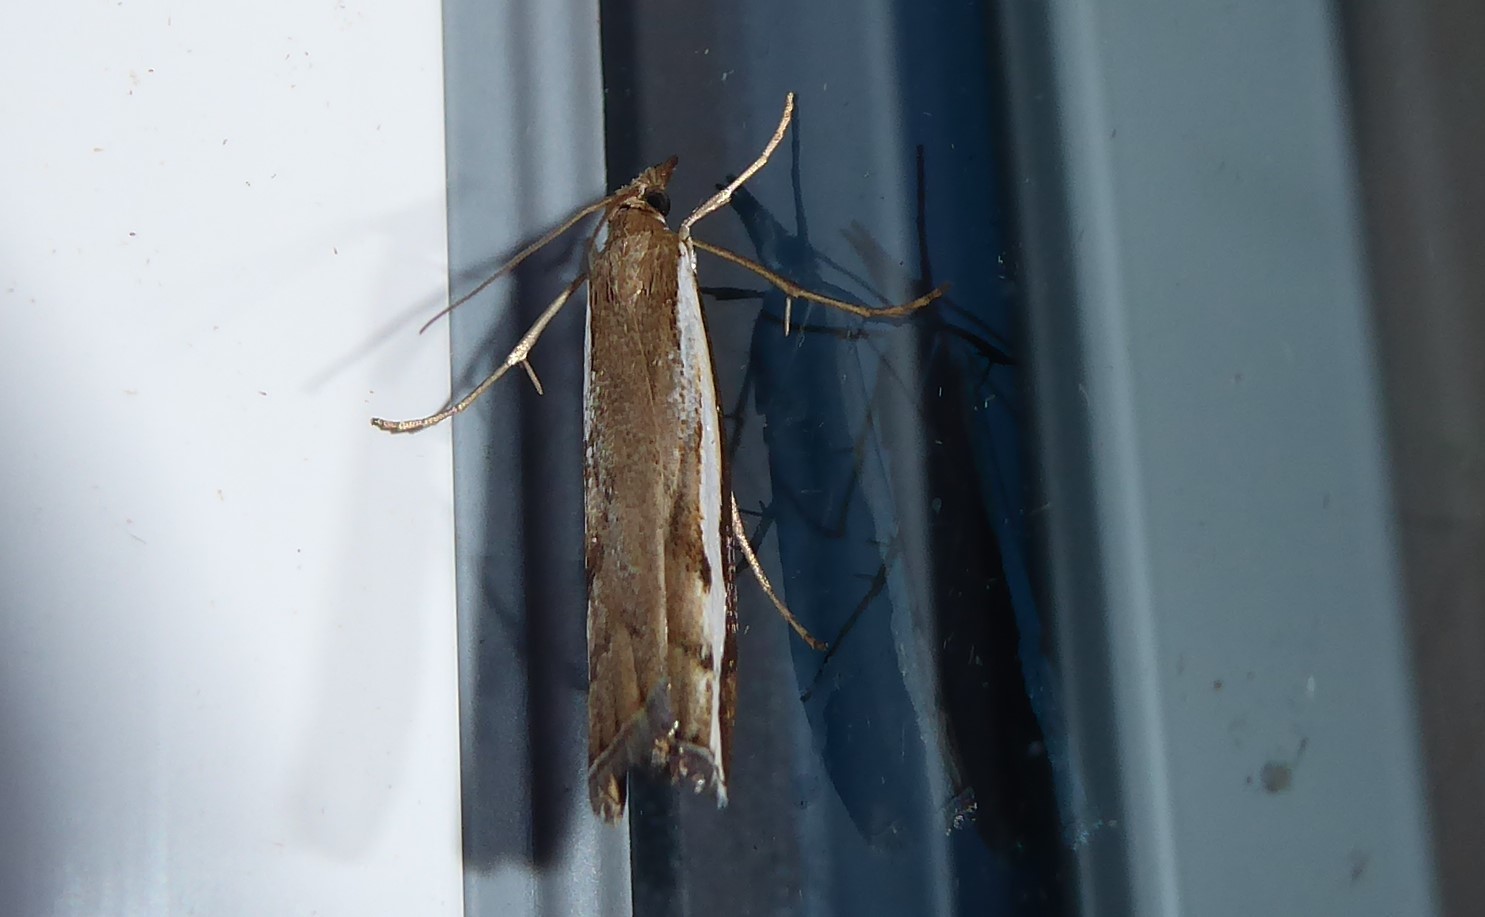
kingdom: Animalia
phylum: Arthropoda
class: Insecta
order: Lepidoptera
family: Crambidae
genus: Orocrambus
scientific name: Orocrambus flexuosellus
